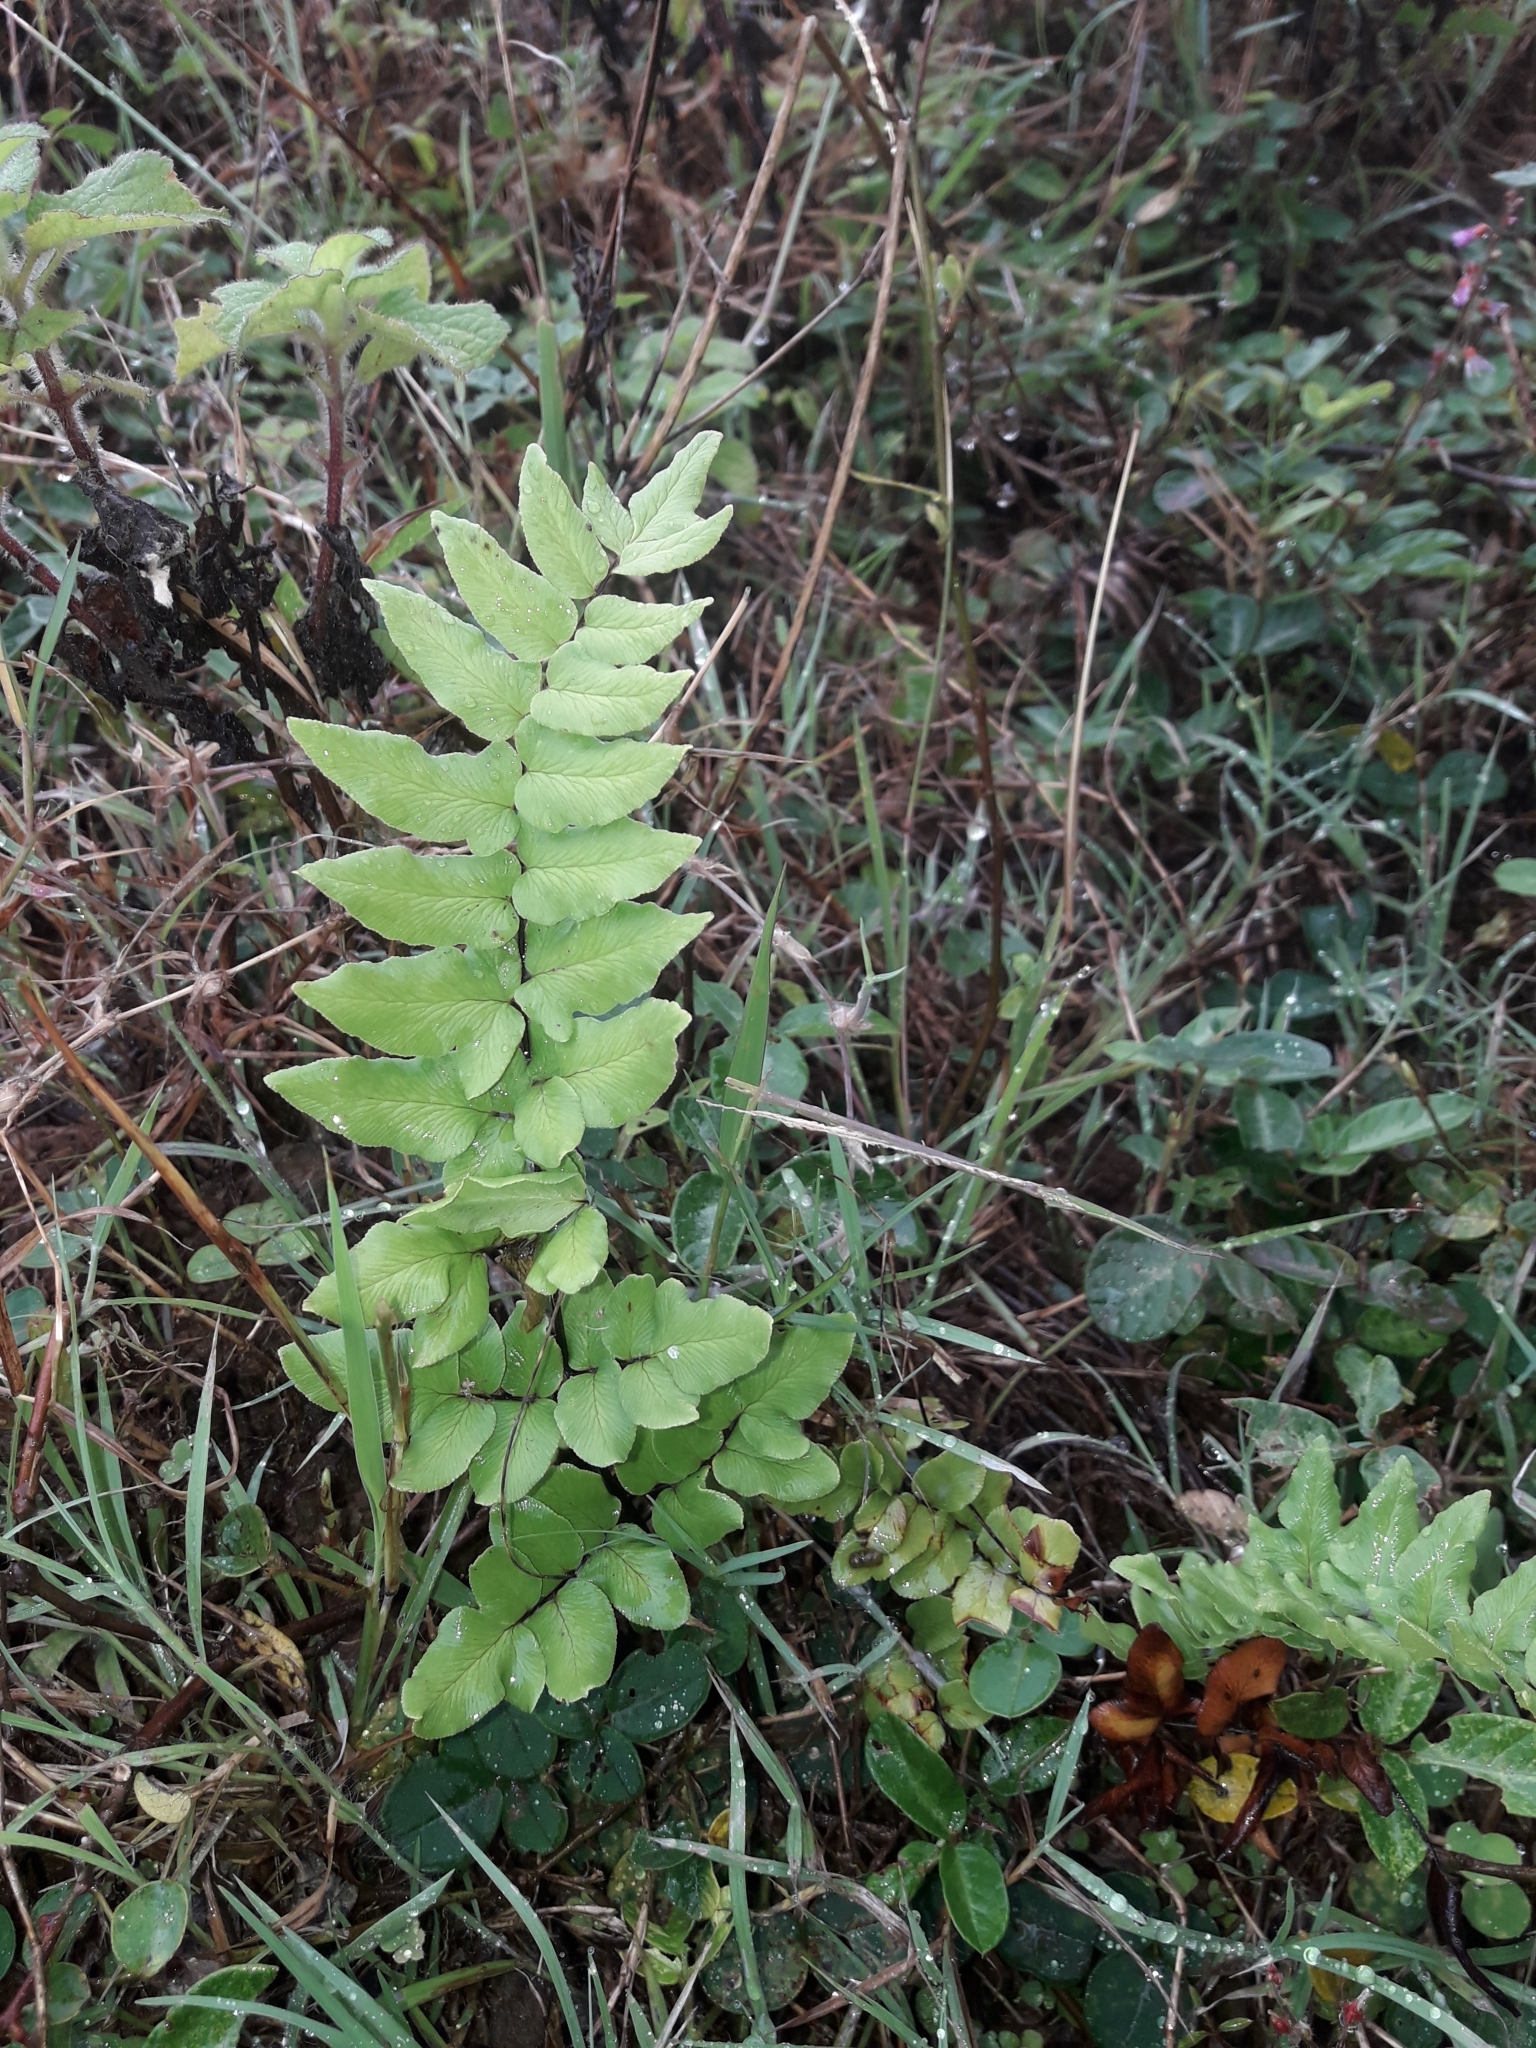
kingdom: Plantae
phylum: Tracheophyta
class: Polypodiopsida
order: Polypodiales
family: Pteridaceae
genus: Cheilanthes
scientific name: Cheilanthes viridis
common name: Green cliffbrake
